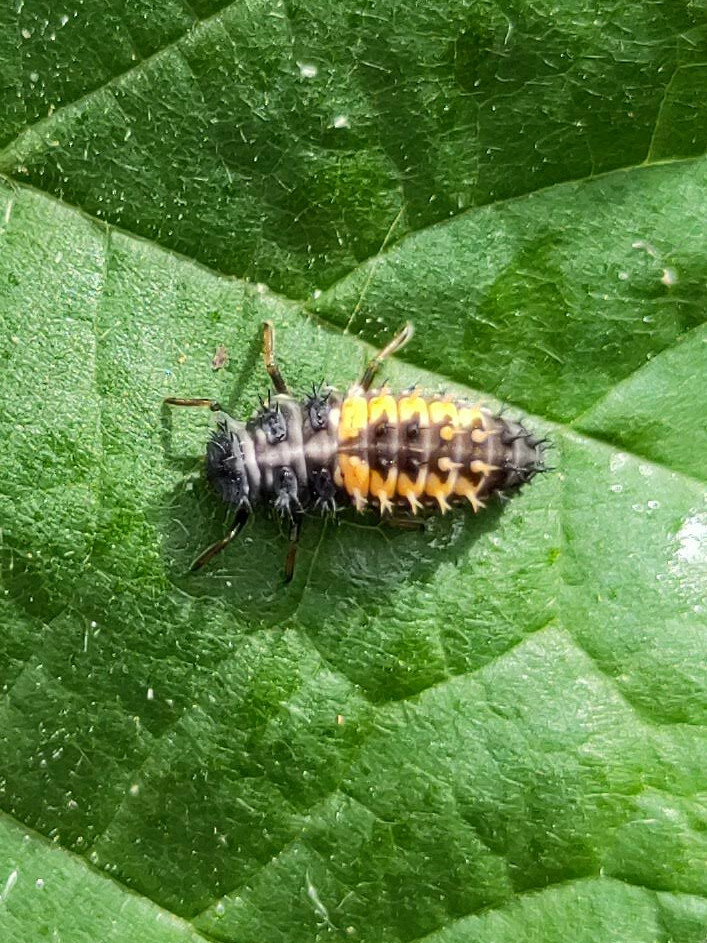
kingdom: Animalia
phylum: Arthropoda
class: Insecta
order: Coleoptera
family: Coccinellidae
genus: Harmonia
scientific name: Harmonia axyridis
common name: Harlequin ladybird
